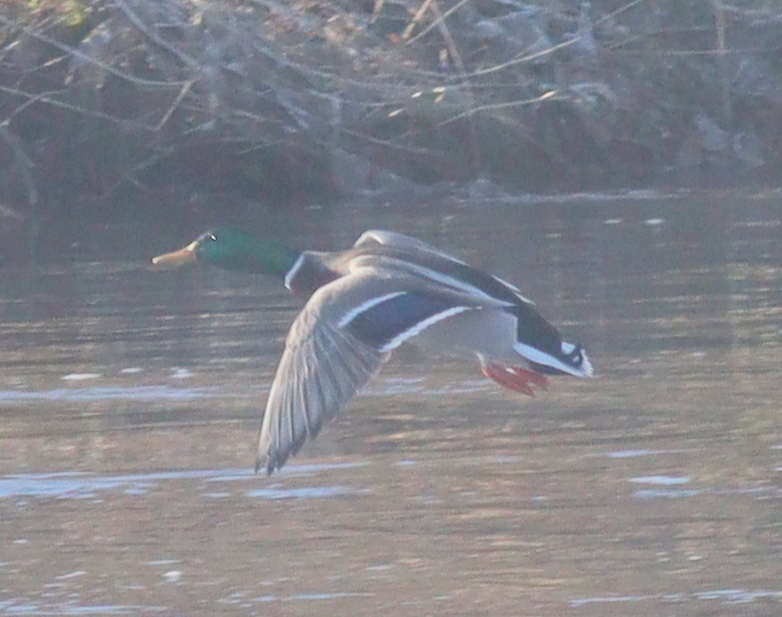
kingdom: Animalia
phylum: Chordata
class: Aves
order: Anseriformes
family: Anatidae
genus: Anas
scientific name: Anas platyrhynchos
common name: Mallard
